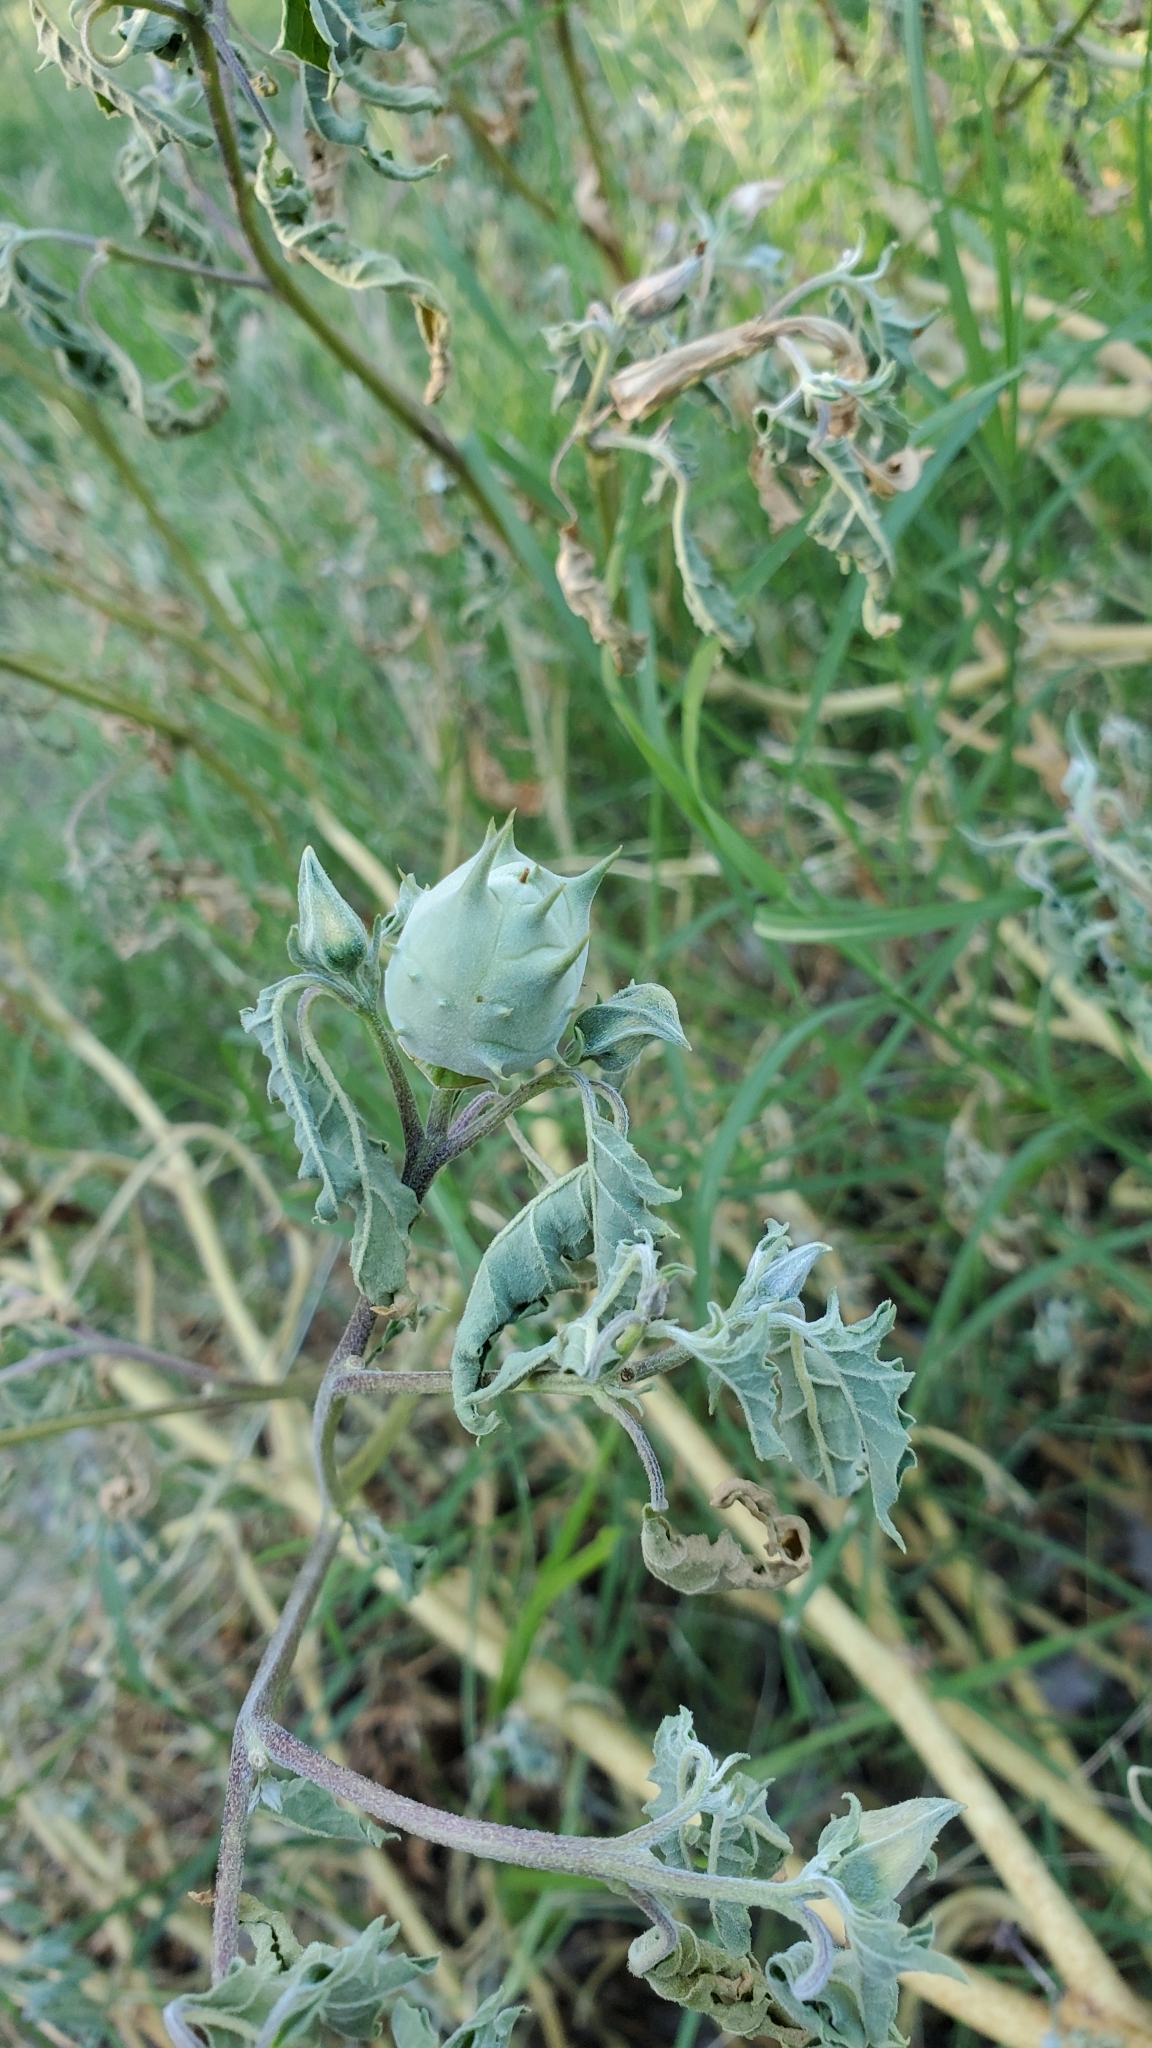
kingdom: Plantae
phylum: Tracheophyta
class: Magnoliopsida
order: Solanales
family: Solanaceae
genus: Datura
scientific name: Datura quercifolia
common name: Oak-leaf datura
